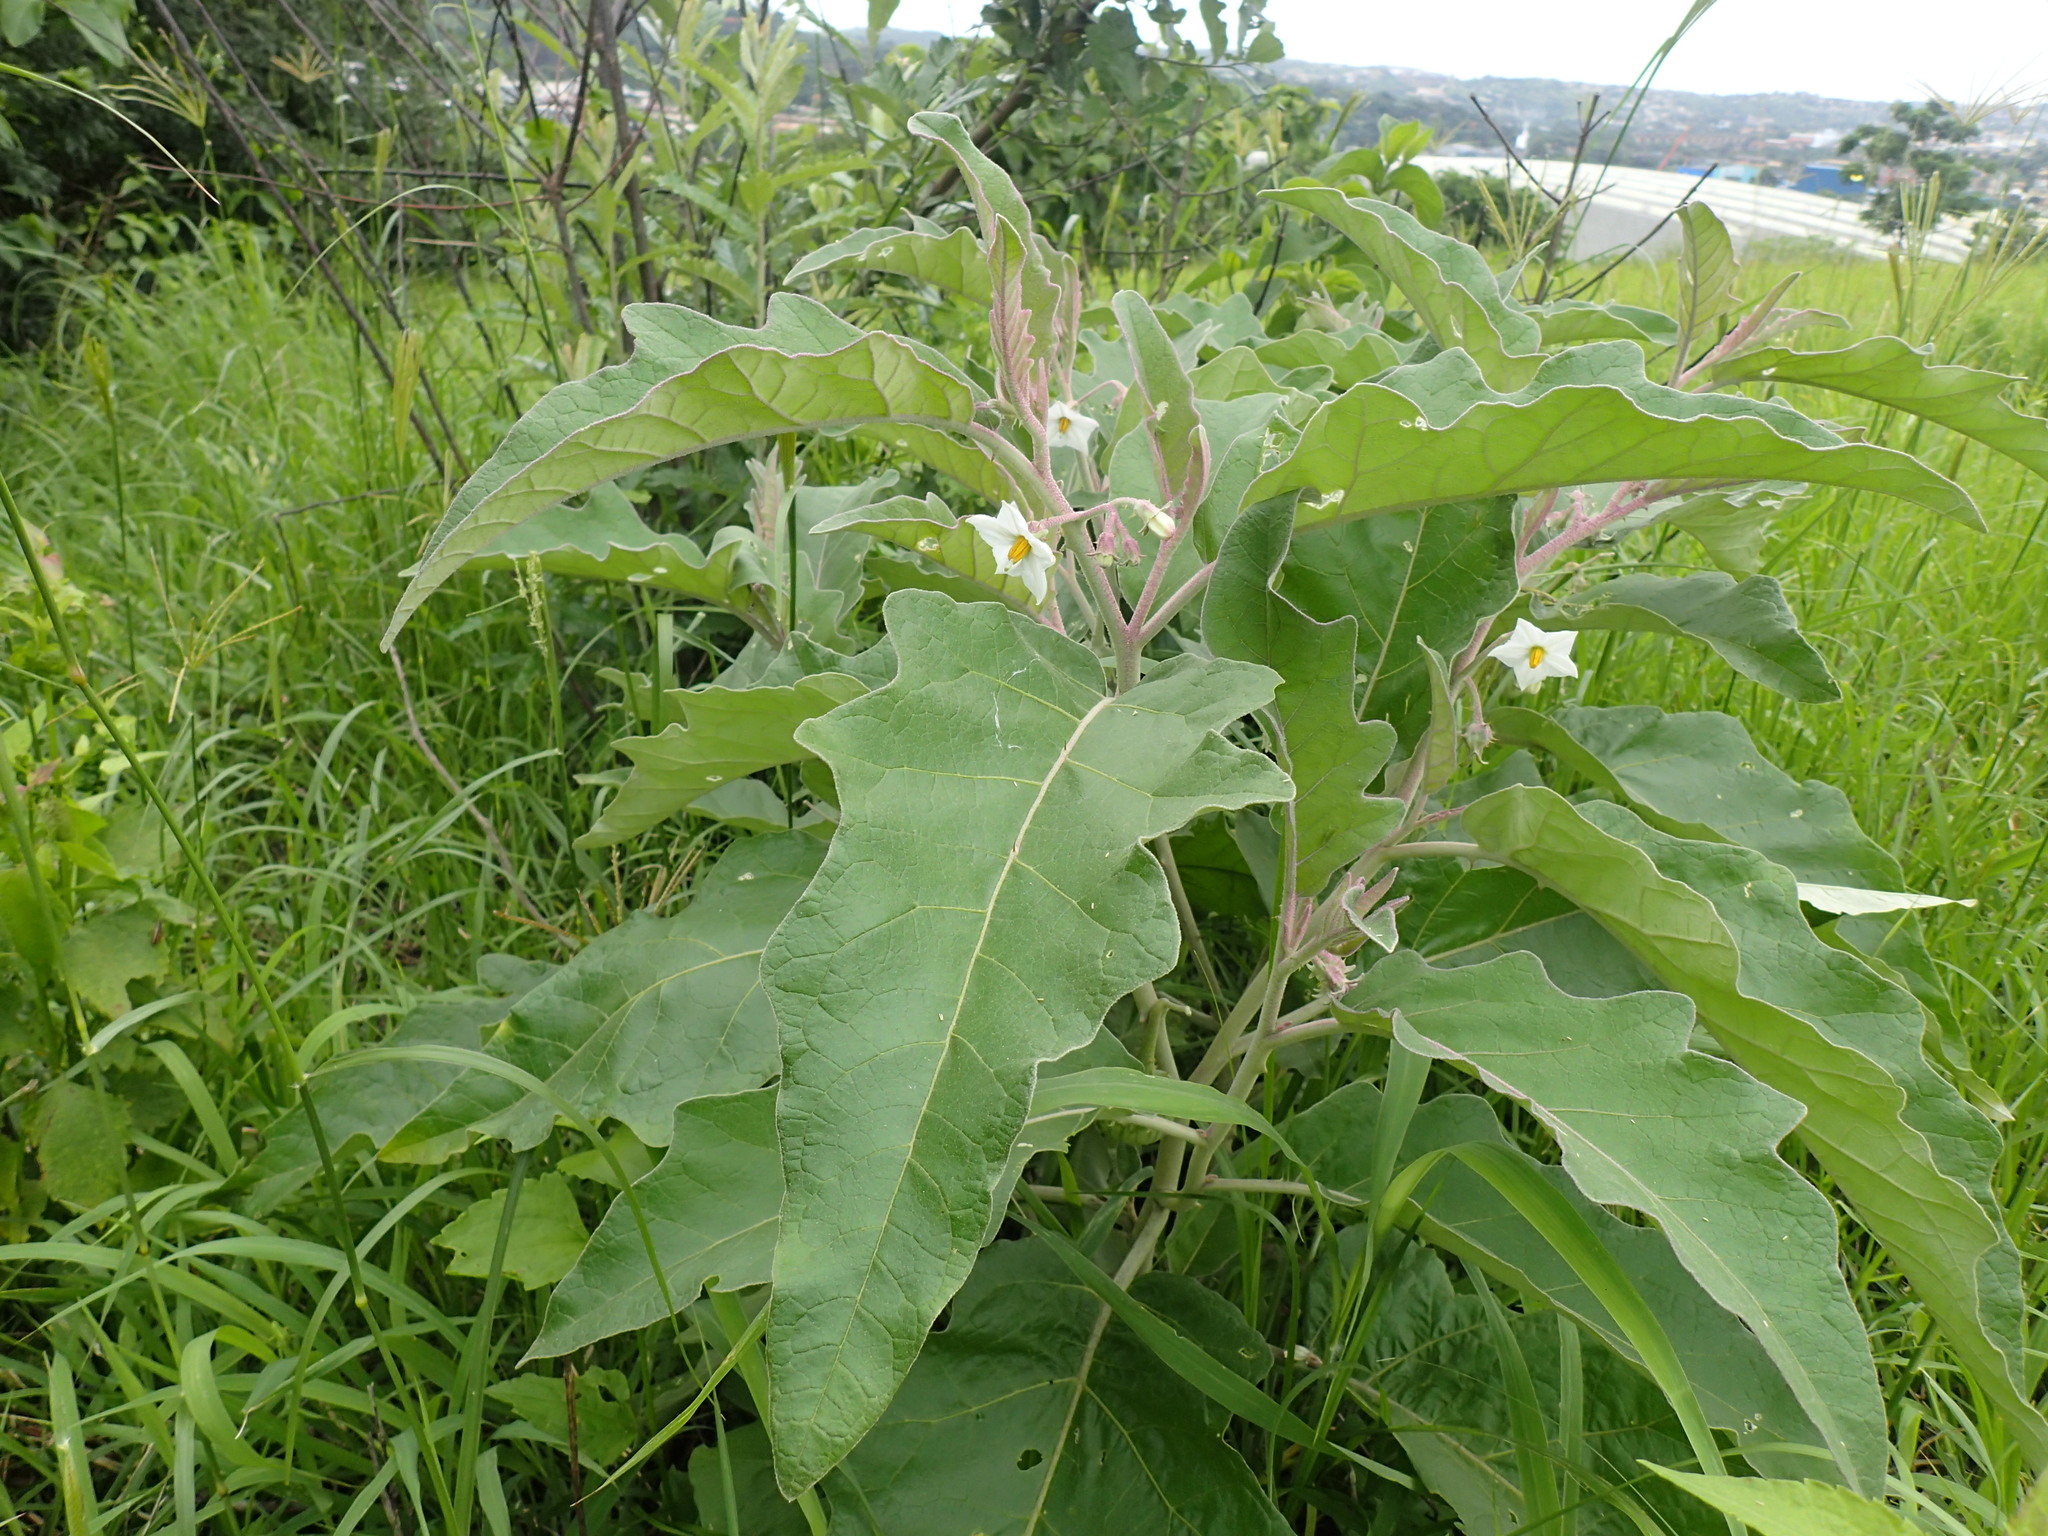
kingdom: Plantae
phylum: Tracheophyta
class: Magnoliopsida
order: Solanales
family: Solanaceae
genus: Solanum
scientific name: Solanum lichtensteinii
